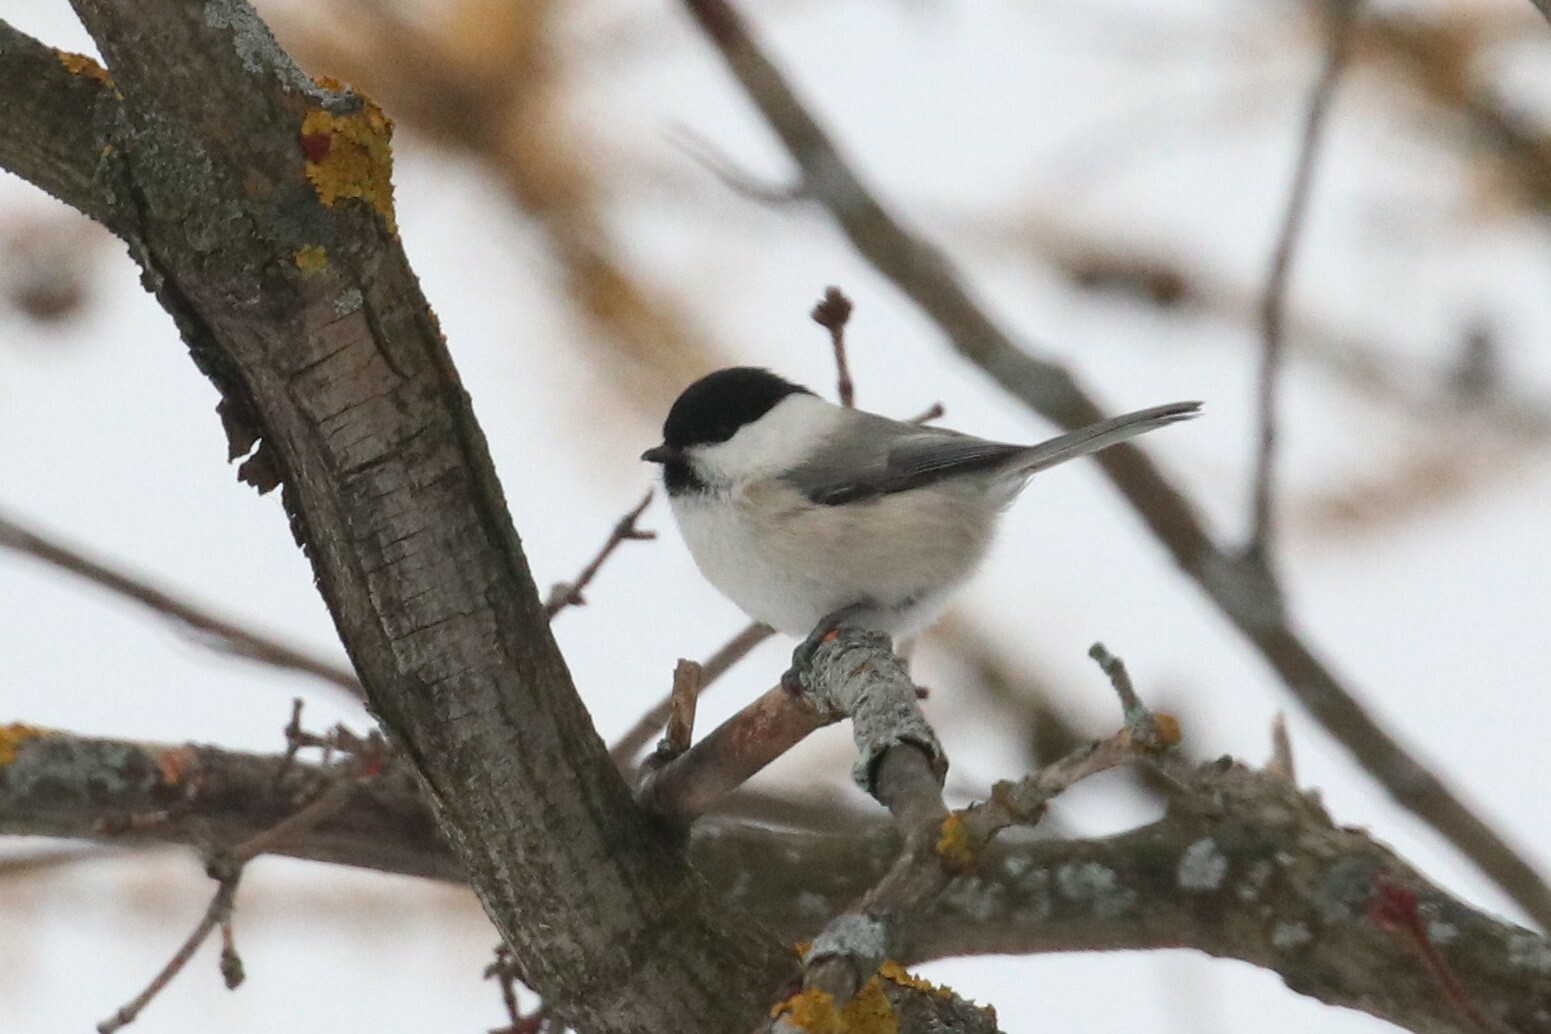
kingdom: Animalia
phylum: Chordata
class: Aves
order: Passeriformes
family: Paridae
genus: Poecile
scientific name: Poecile montanus
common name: Willow tit
